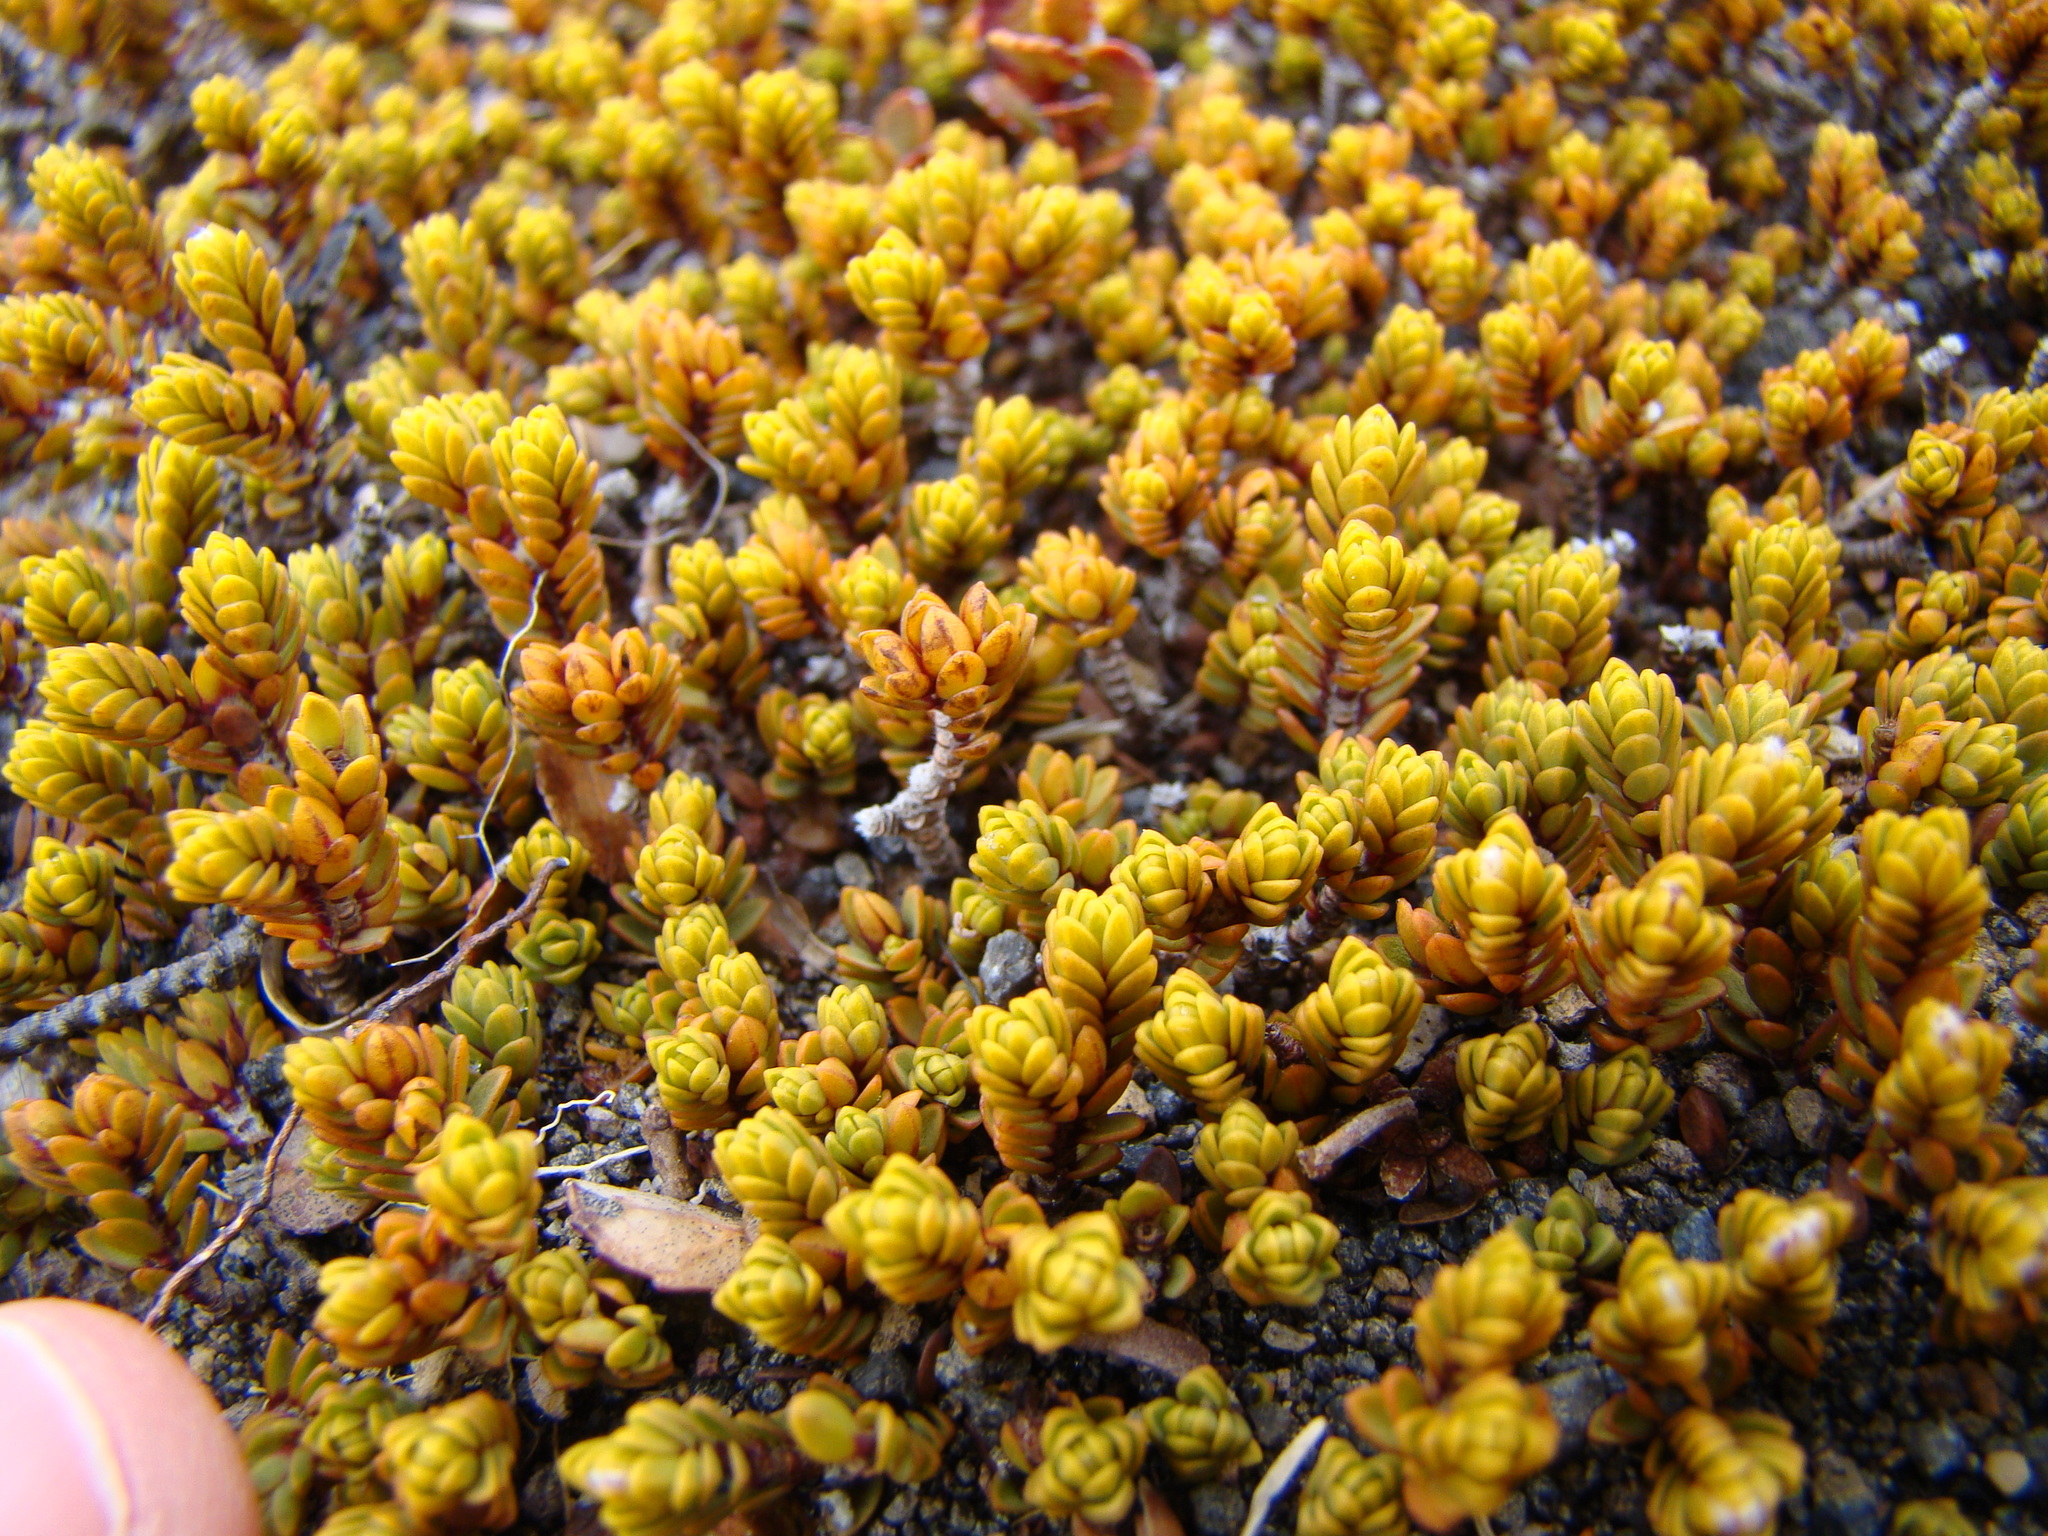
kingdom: Plantae
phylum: Tracheophyta
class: Magnoliopsida
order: Malvales
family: Thymelaeaceae
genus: Pimelea
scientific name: Pimelea microphylla
